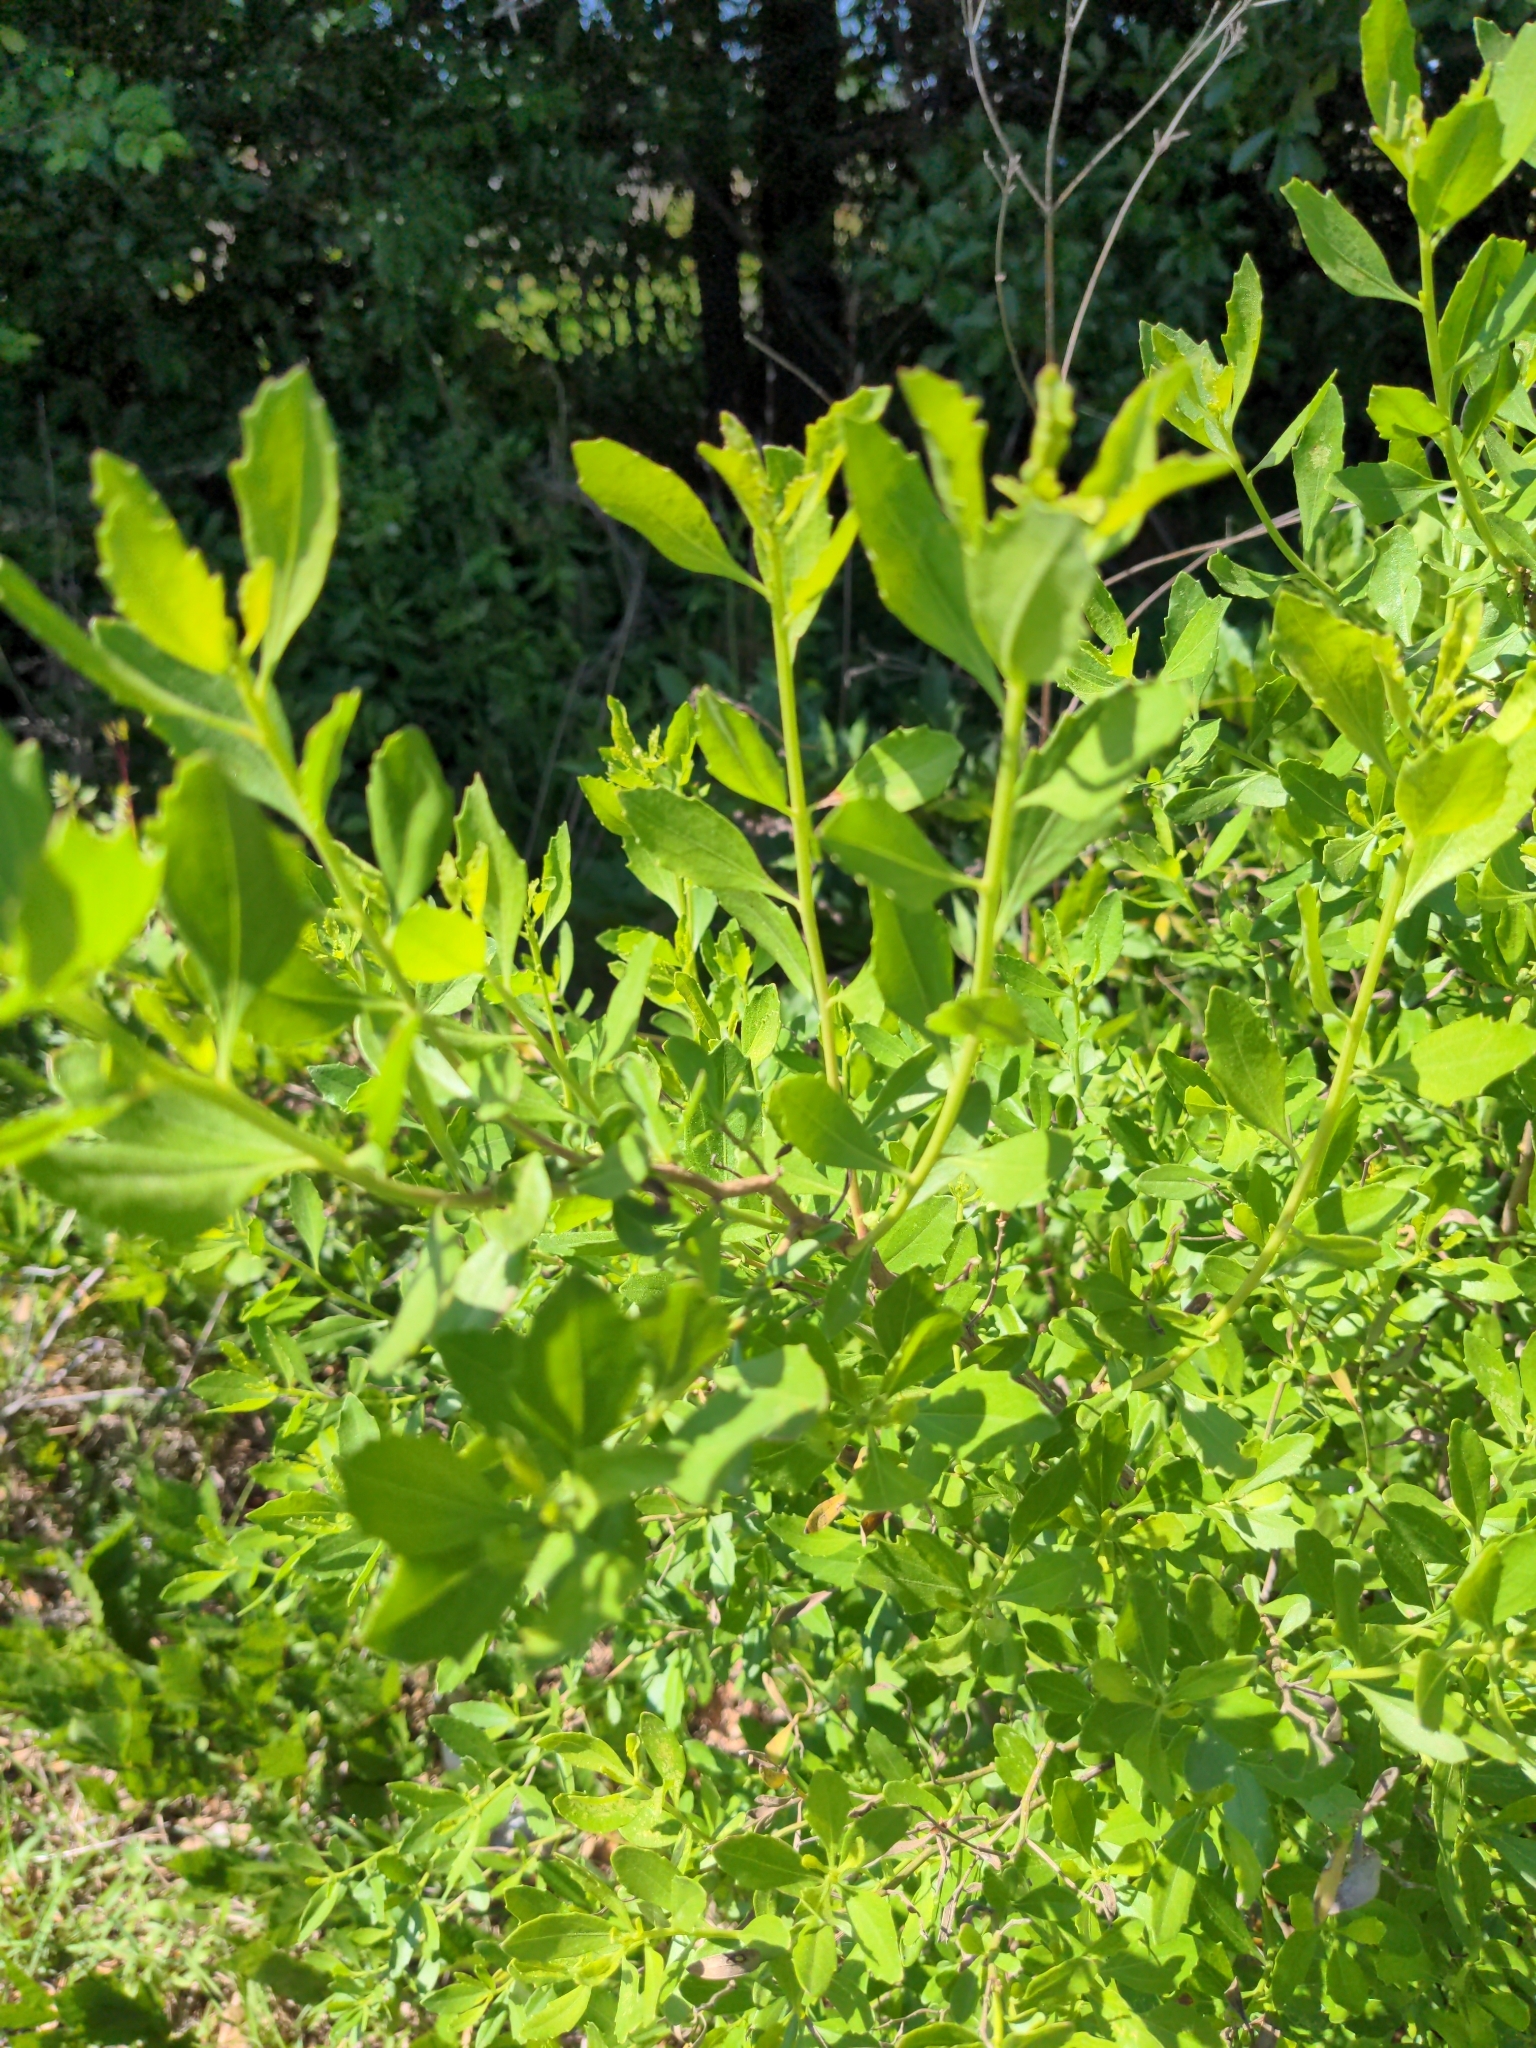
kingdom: Plantae
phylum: Tracheophyta
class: Magnoliopsida
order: Asterales
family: Asteraceae
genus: Baccharis
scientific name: Baccharis halimifolia
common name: Eastern baccharis
